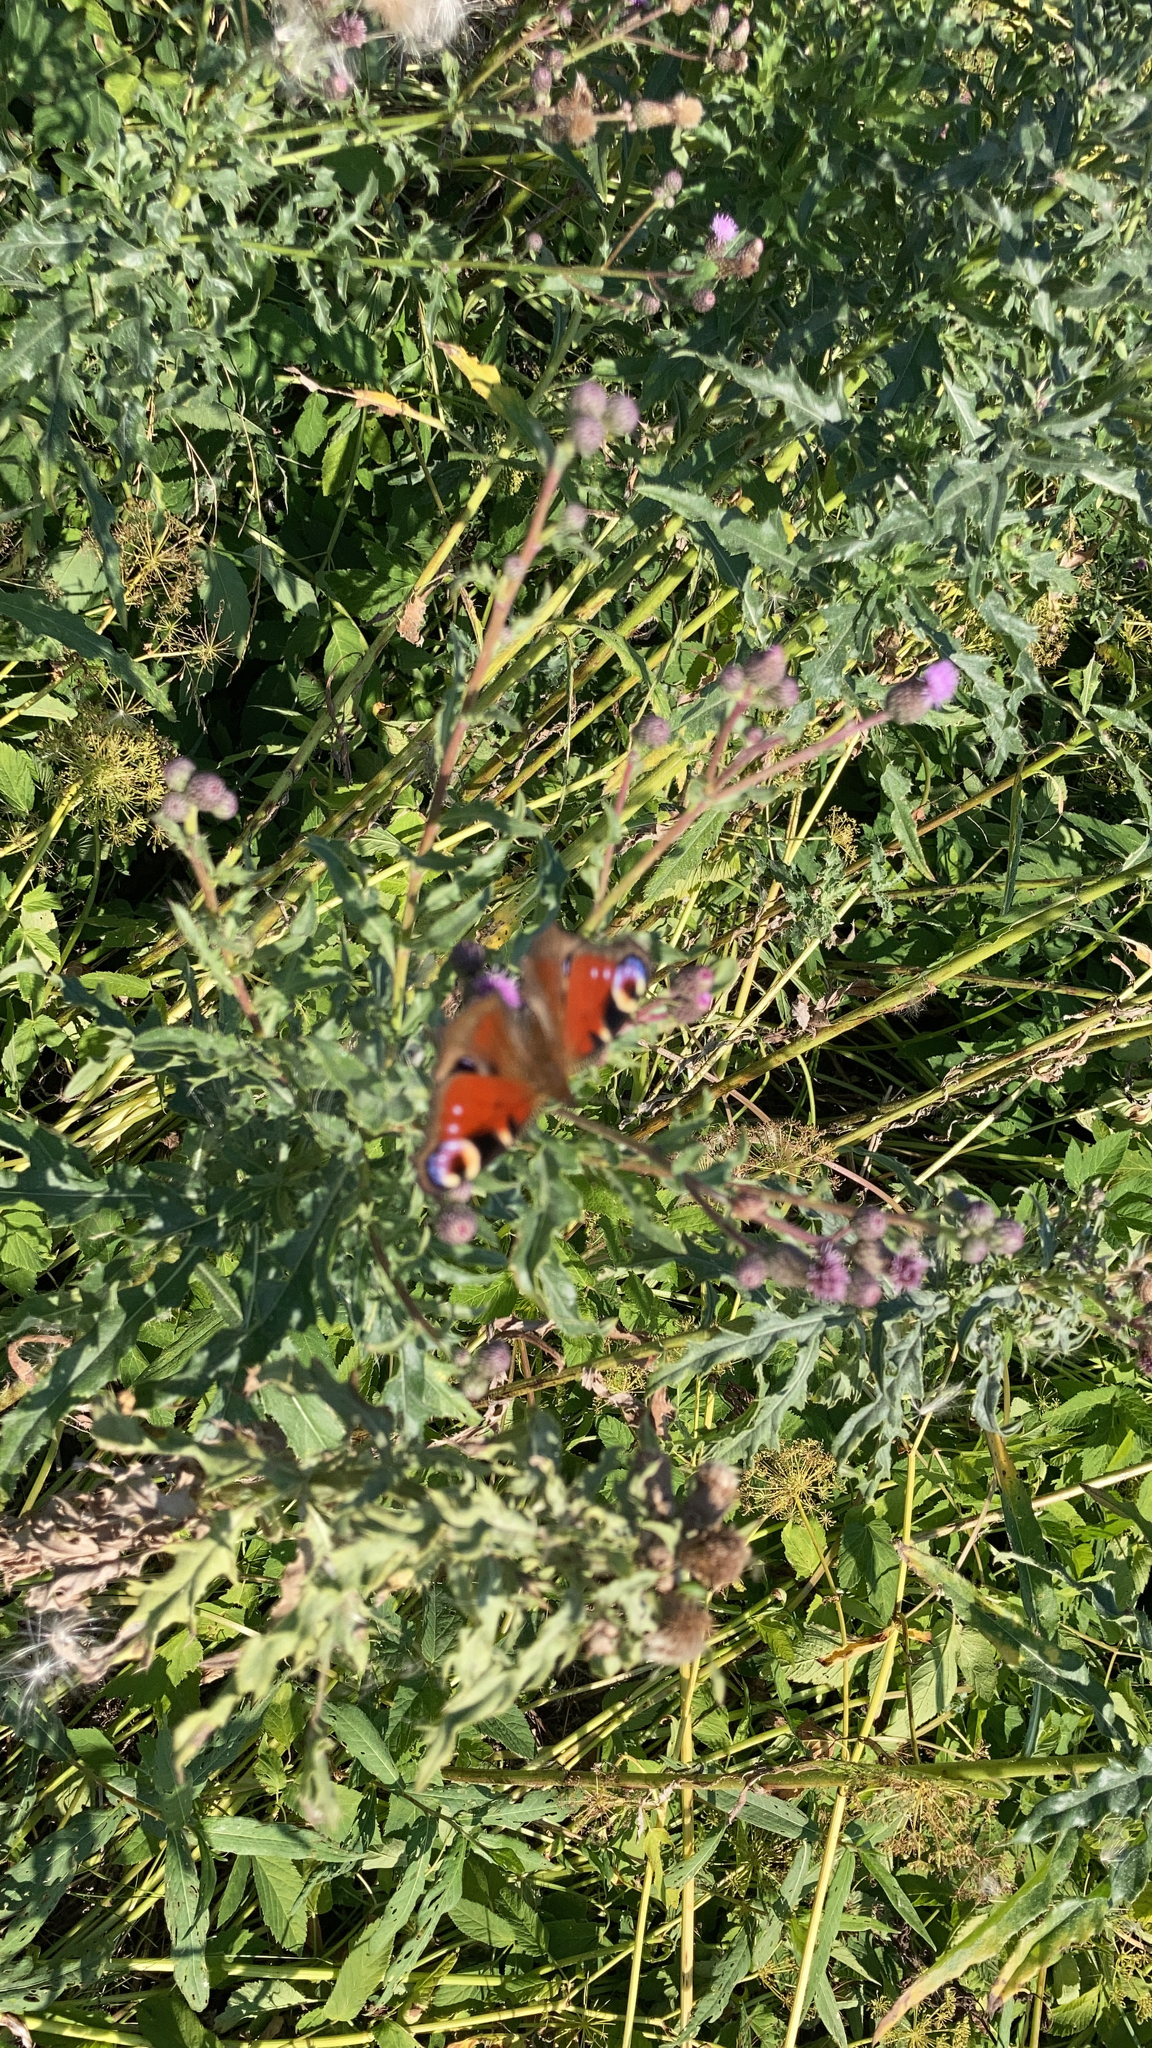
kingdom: Animalia
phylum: Arthropoda
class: Insecta
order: Lepidoptera
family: Nymphalidae
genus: Aglais
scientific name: Aglais io
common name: Peacock
